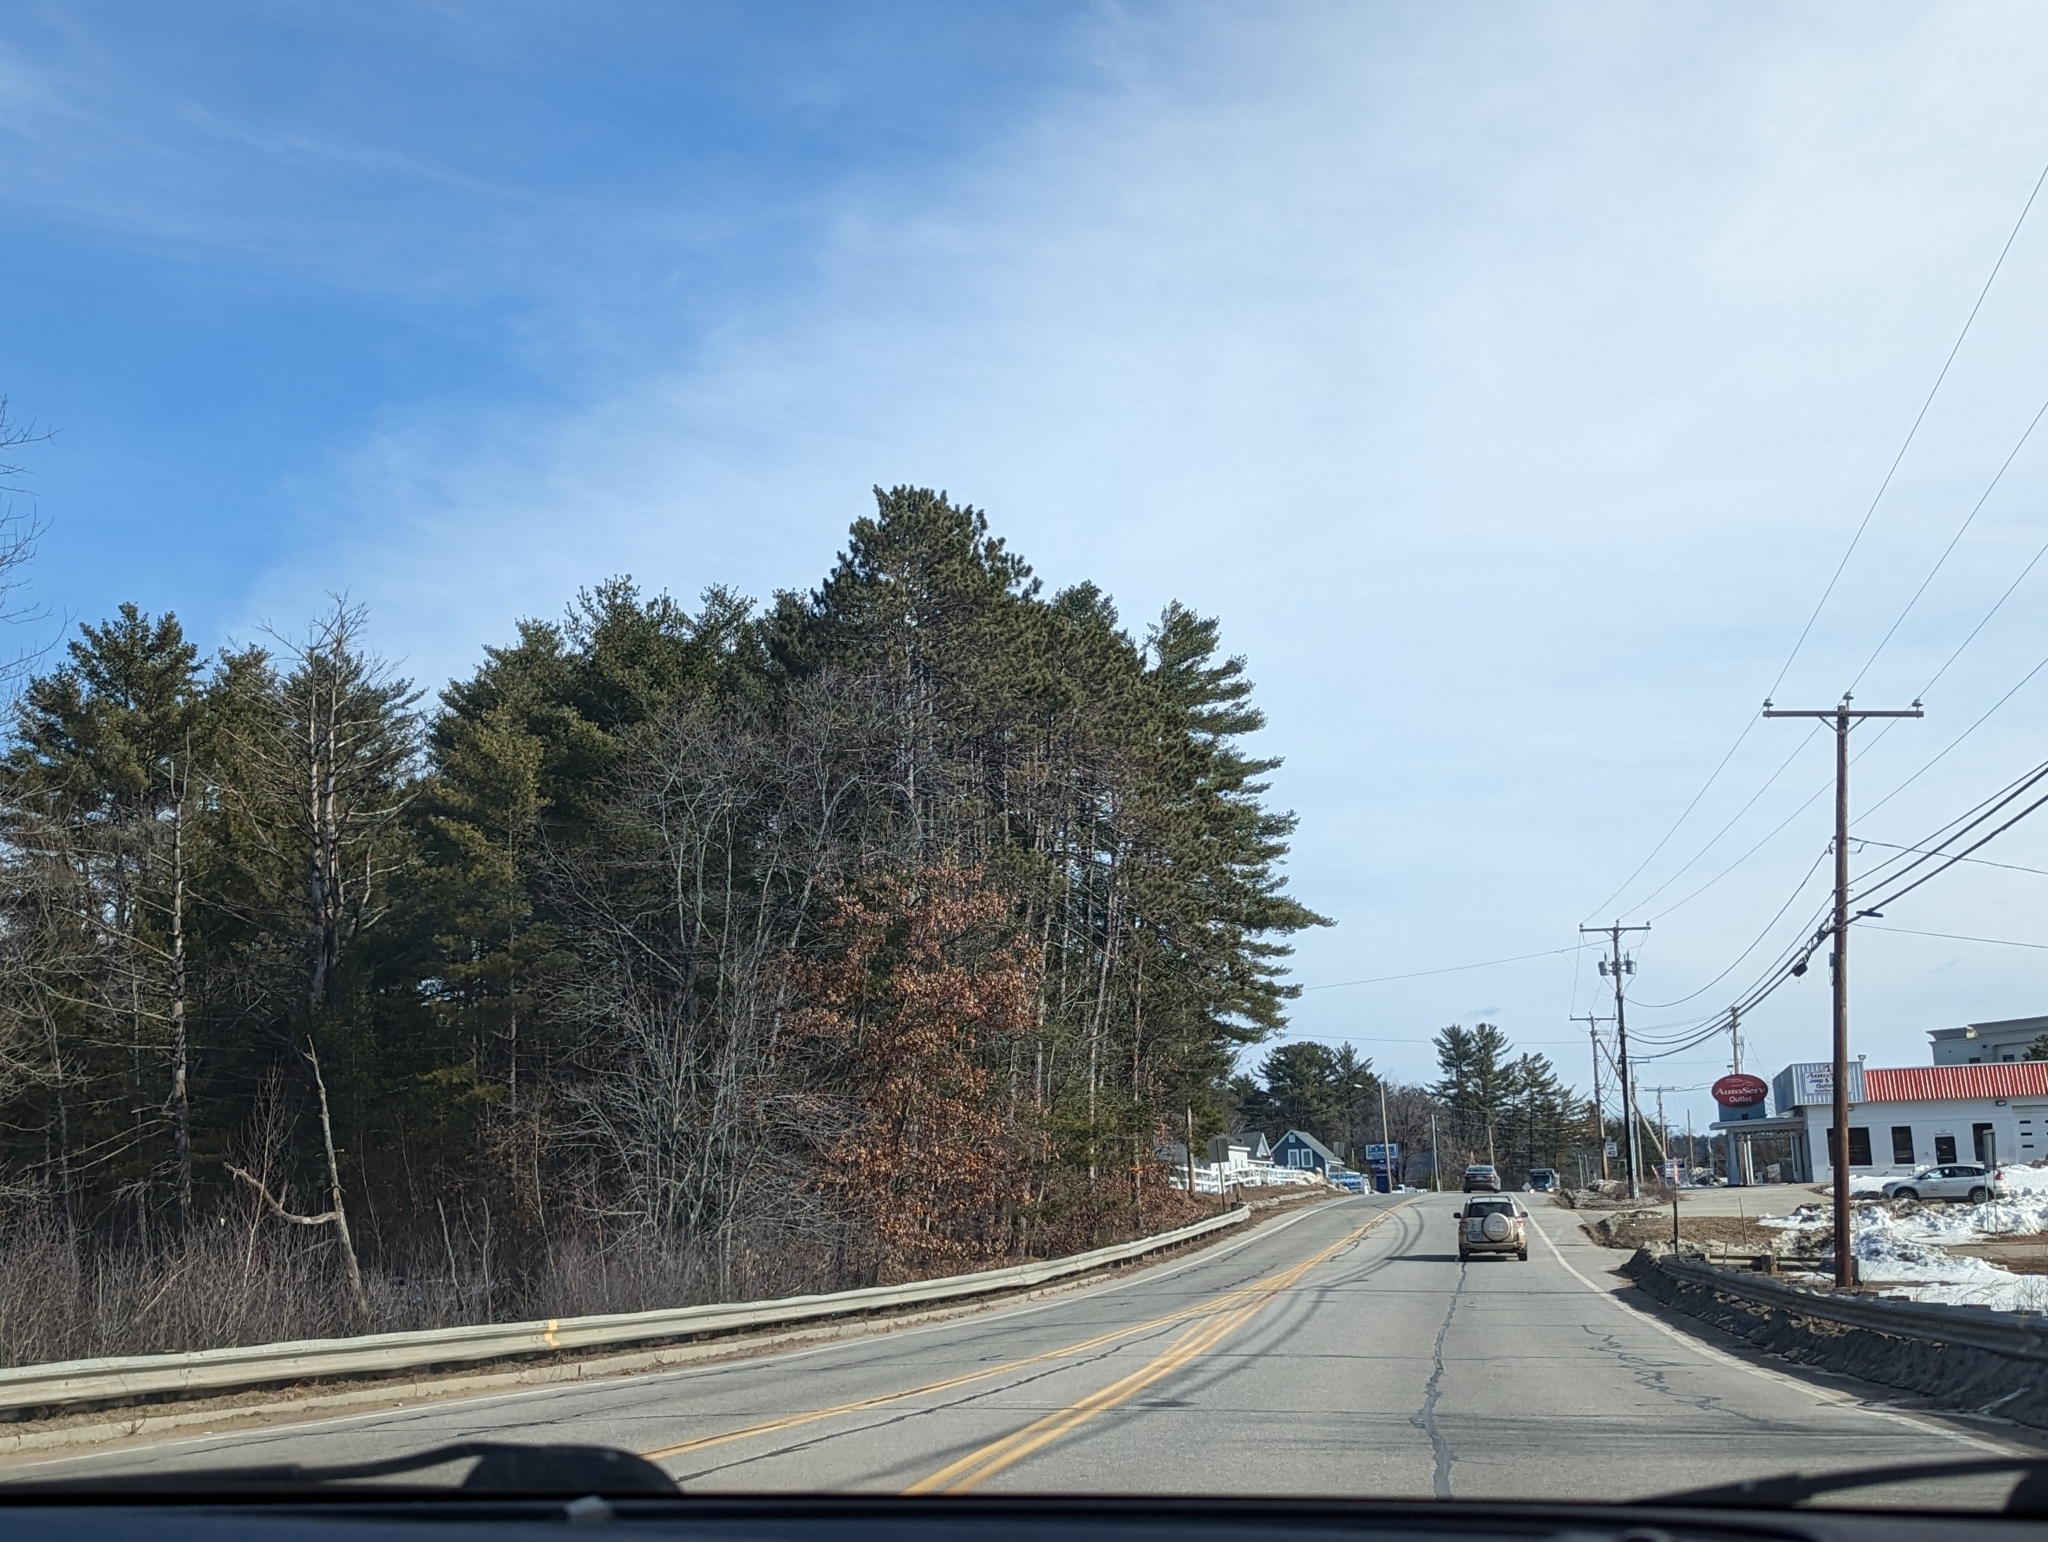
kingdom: Plantae
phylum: Tracheophyta
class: Pinopsida
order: Pinales
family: Pinaceae
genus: Pinus
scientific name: Pinus strobus
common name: Weymouth pine
